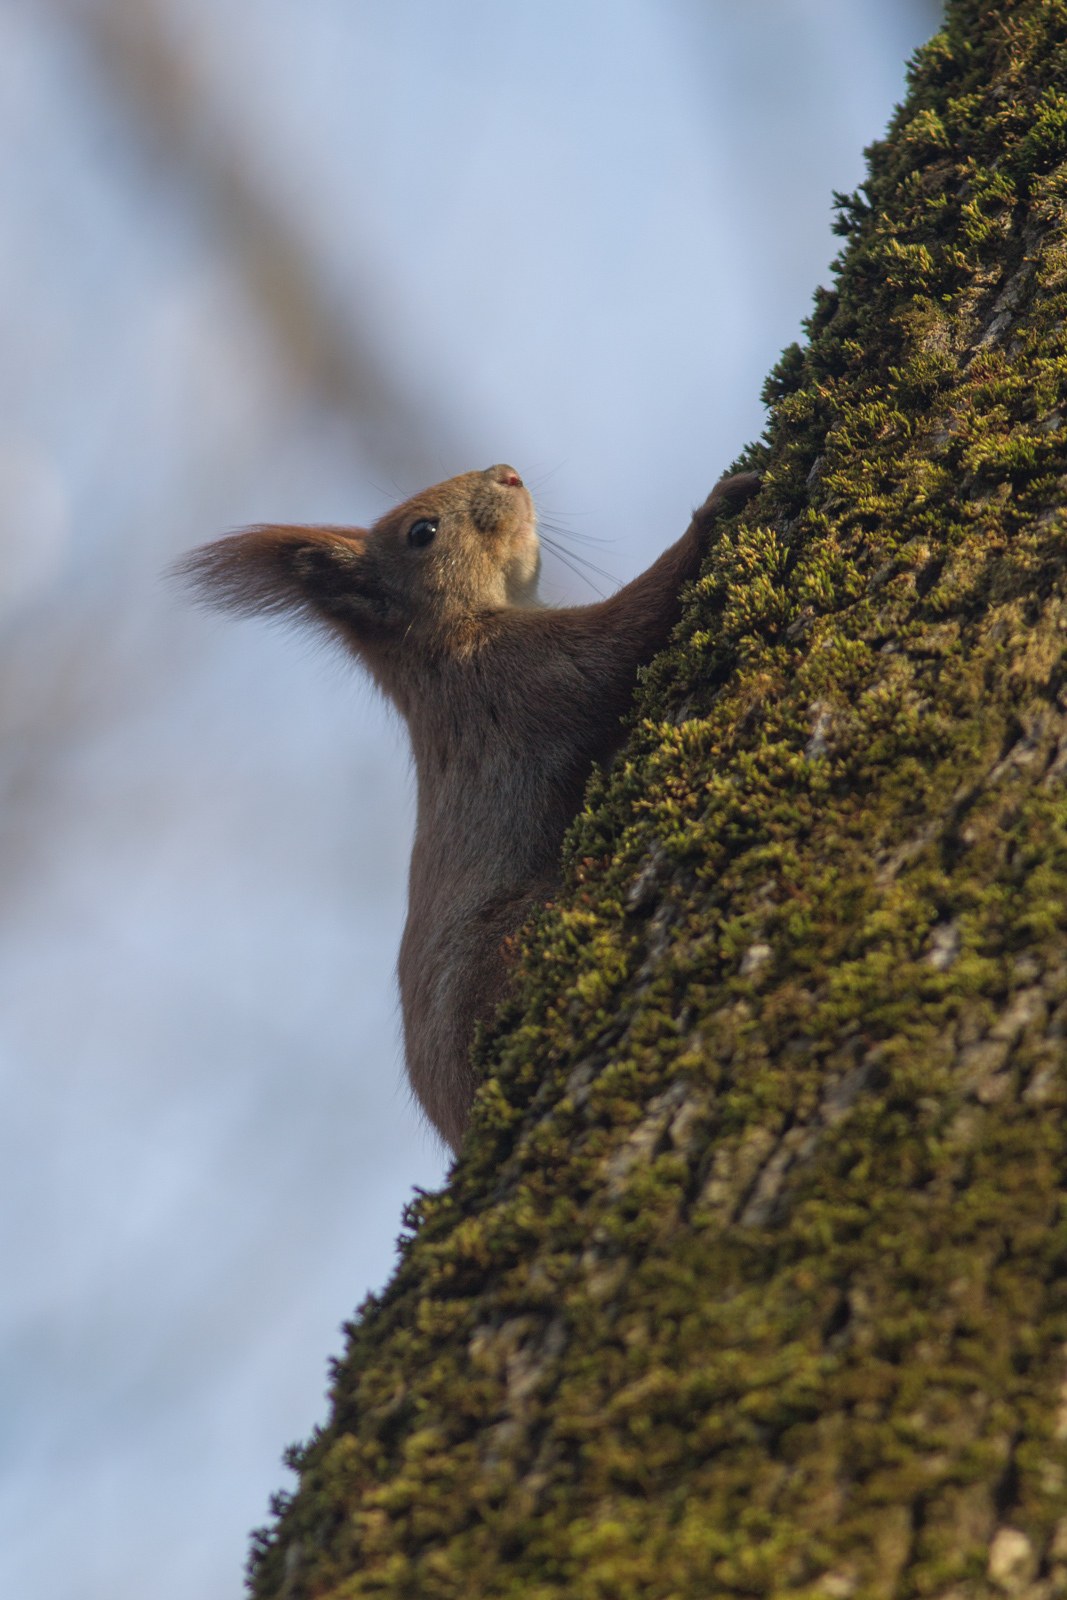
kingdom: Animalia
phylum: Chordata
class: Mammalia
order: Rodentia
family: Sciuridae
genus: Sciurus
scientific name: Sciurus vulgaris
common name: Eurasian red squirrel
